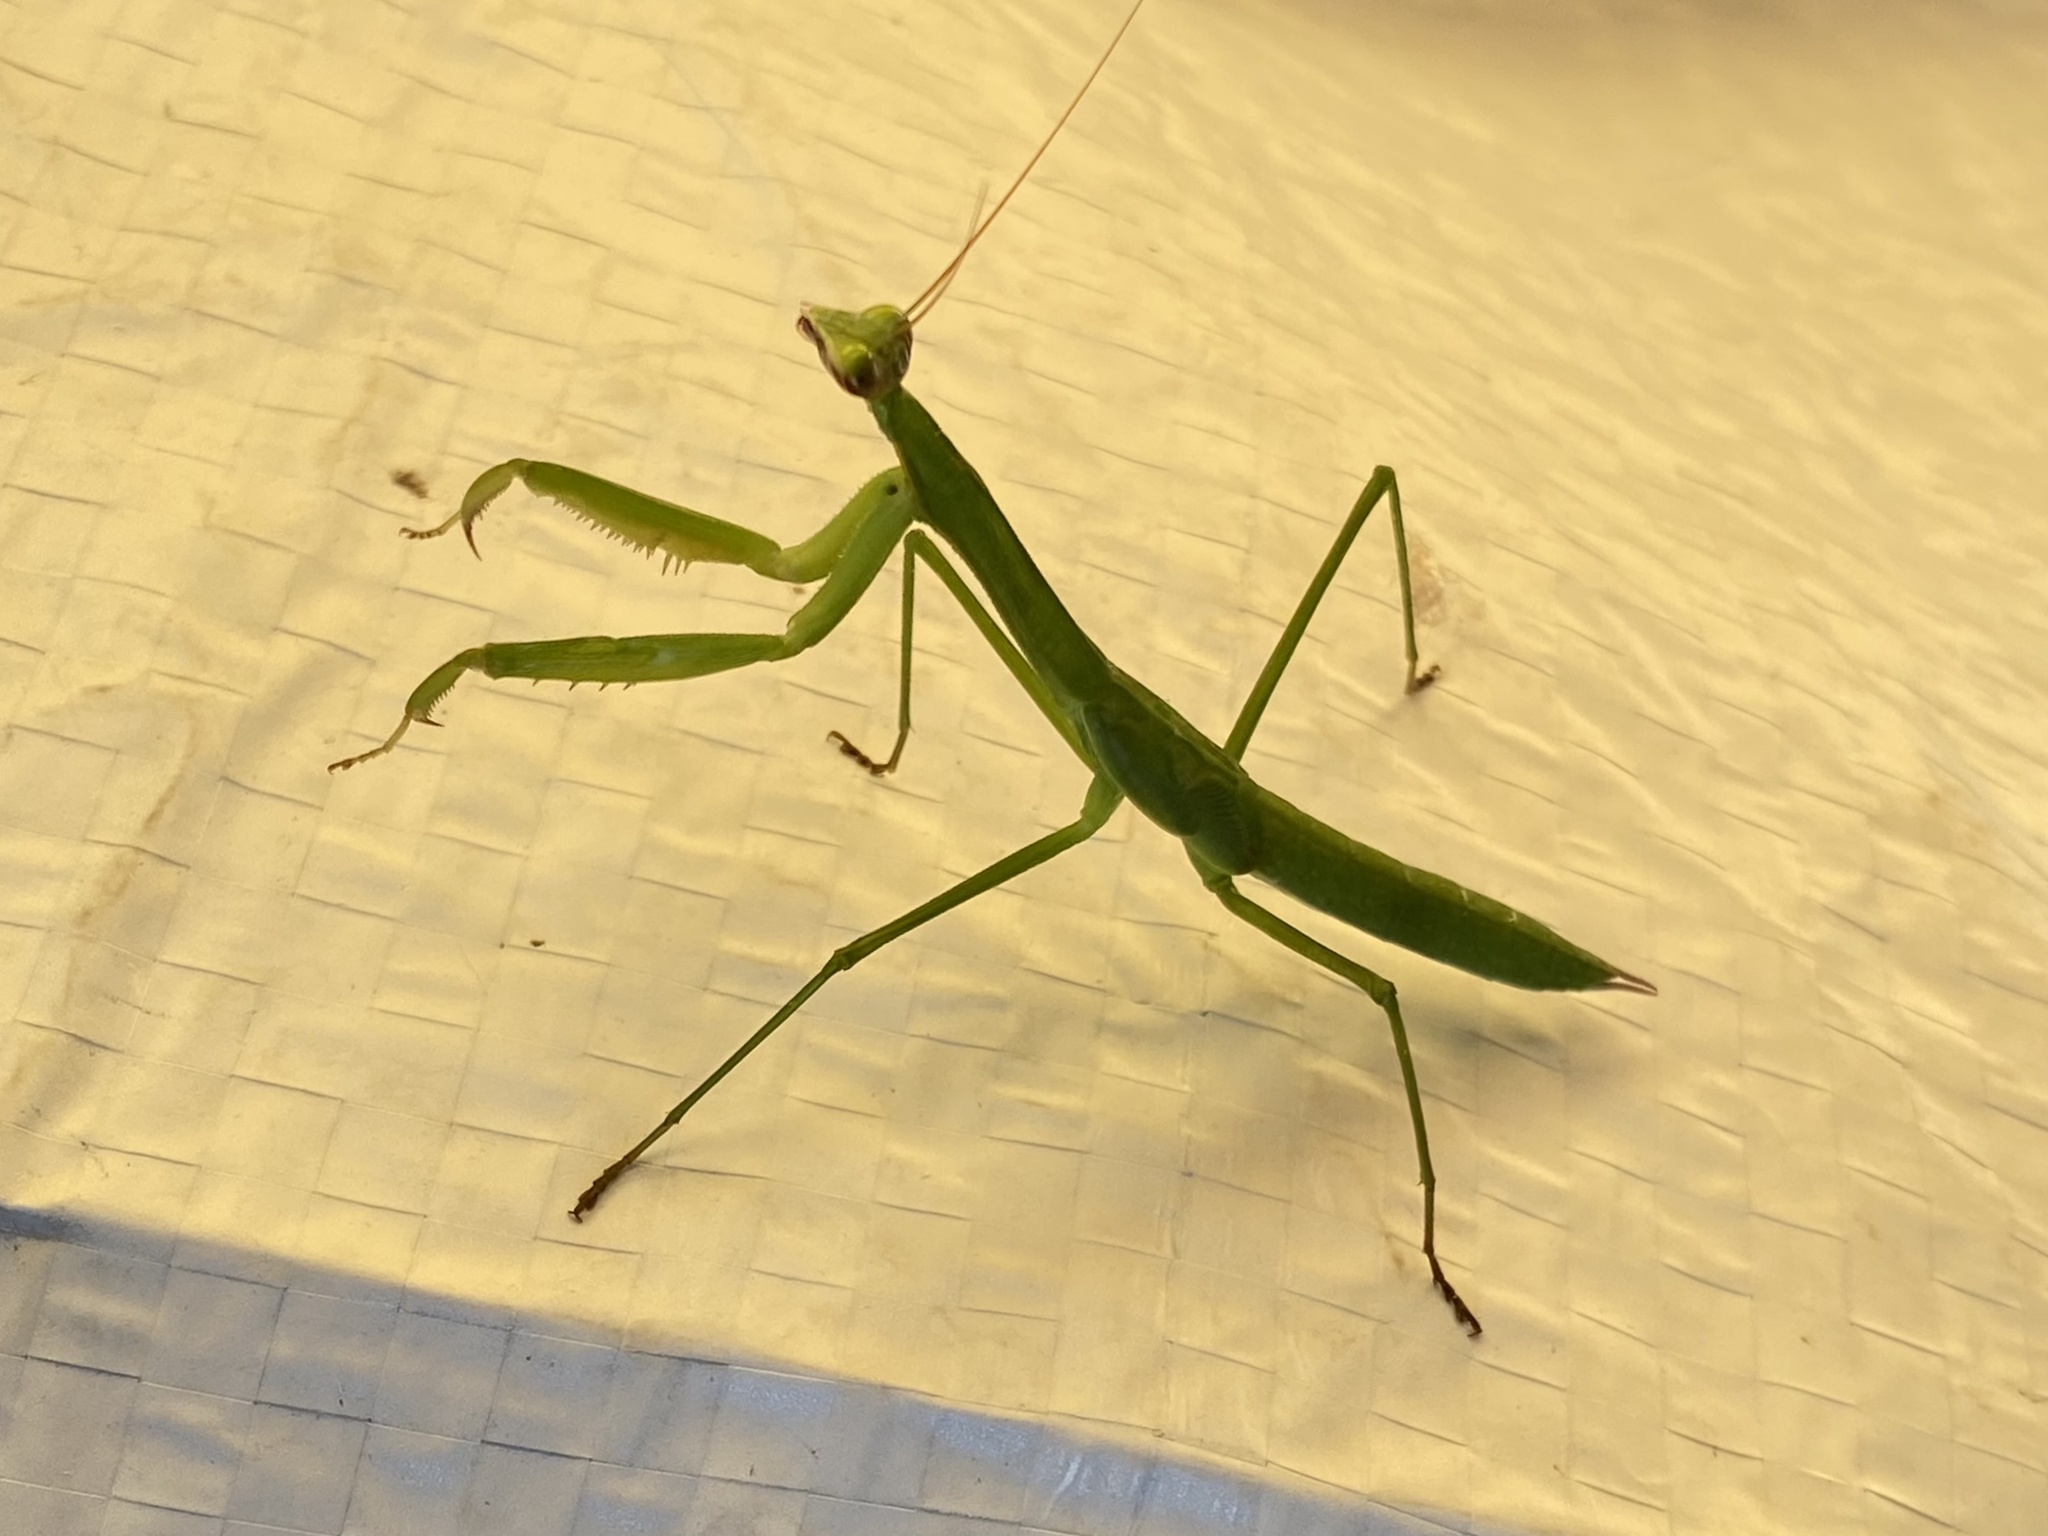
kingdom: Animalia
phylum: Arthropoda
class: Insecta
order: Mantodea
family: Mantidae
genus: Tenodera
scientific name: Tenodera sinensis
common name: Chinese mantis
